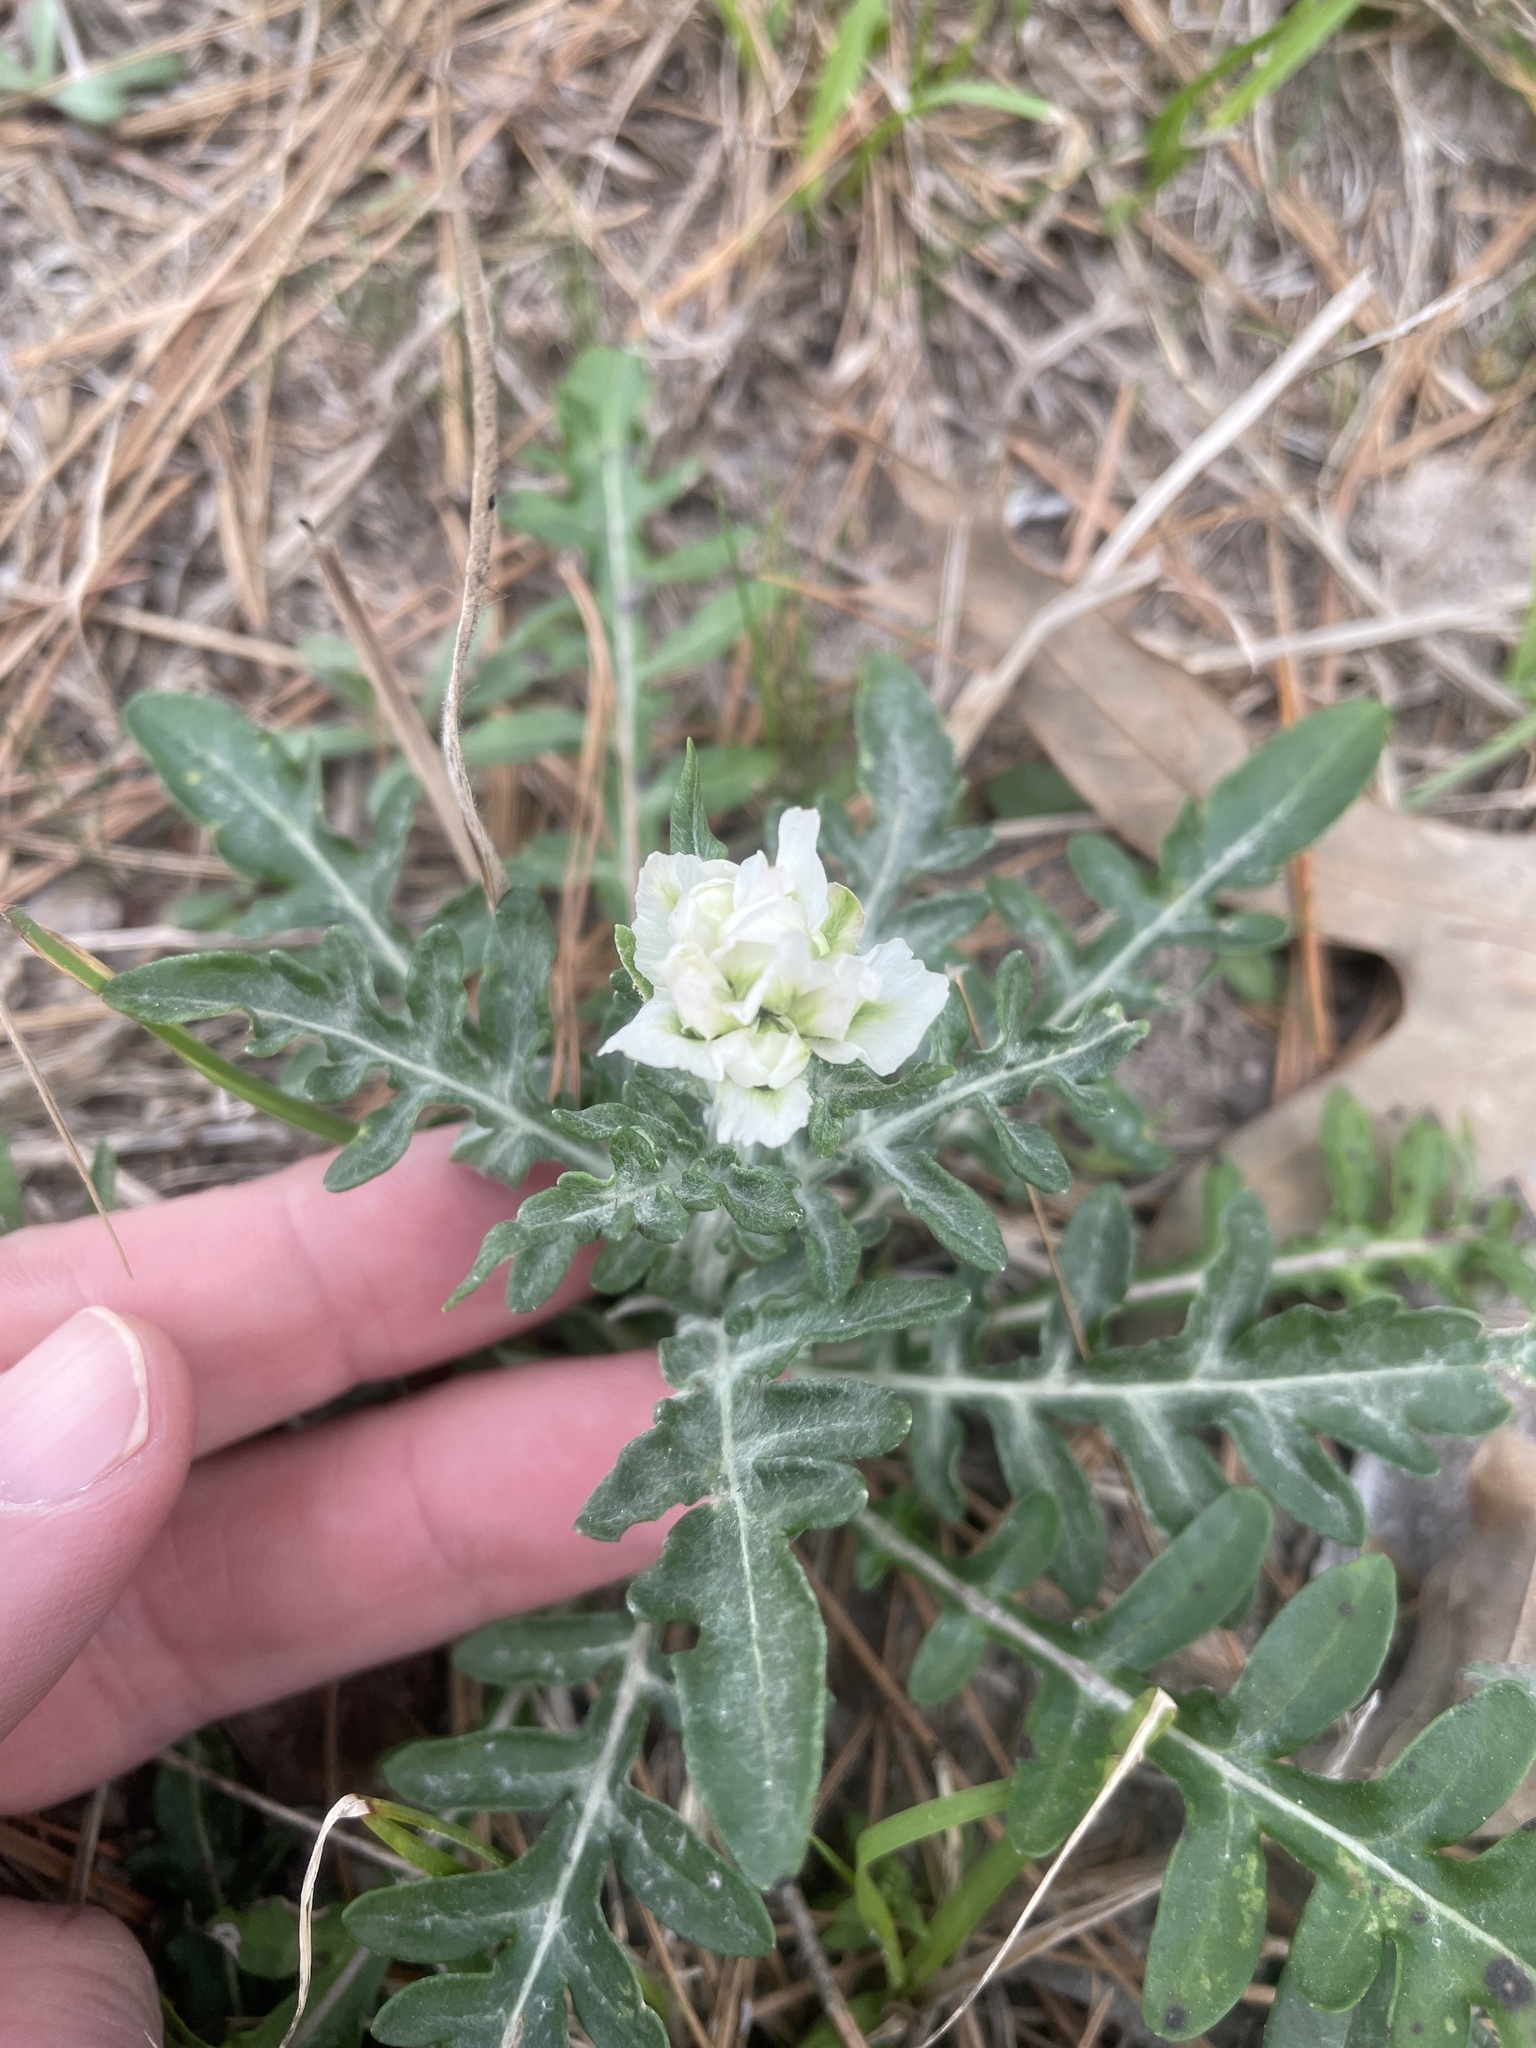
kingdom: Plantae
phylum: Tracheophyta
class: Magnoliopsida
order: Asterales
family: Asteraceae
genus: Hymenopappus
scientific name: Hymenopappus artemisiifolius
